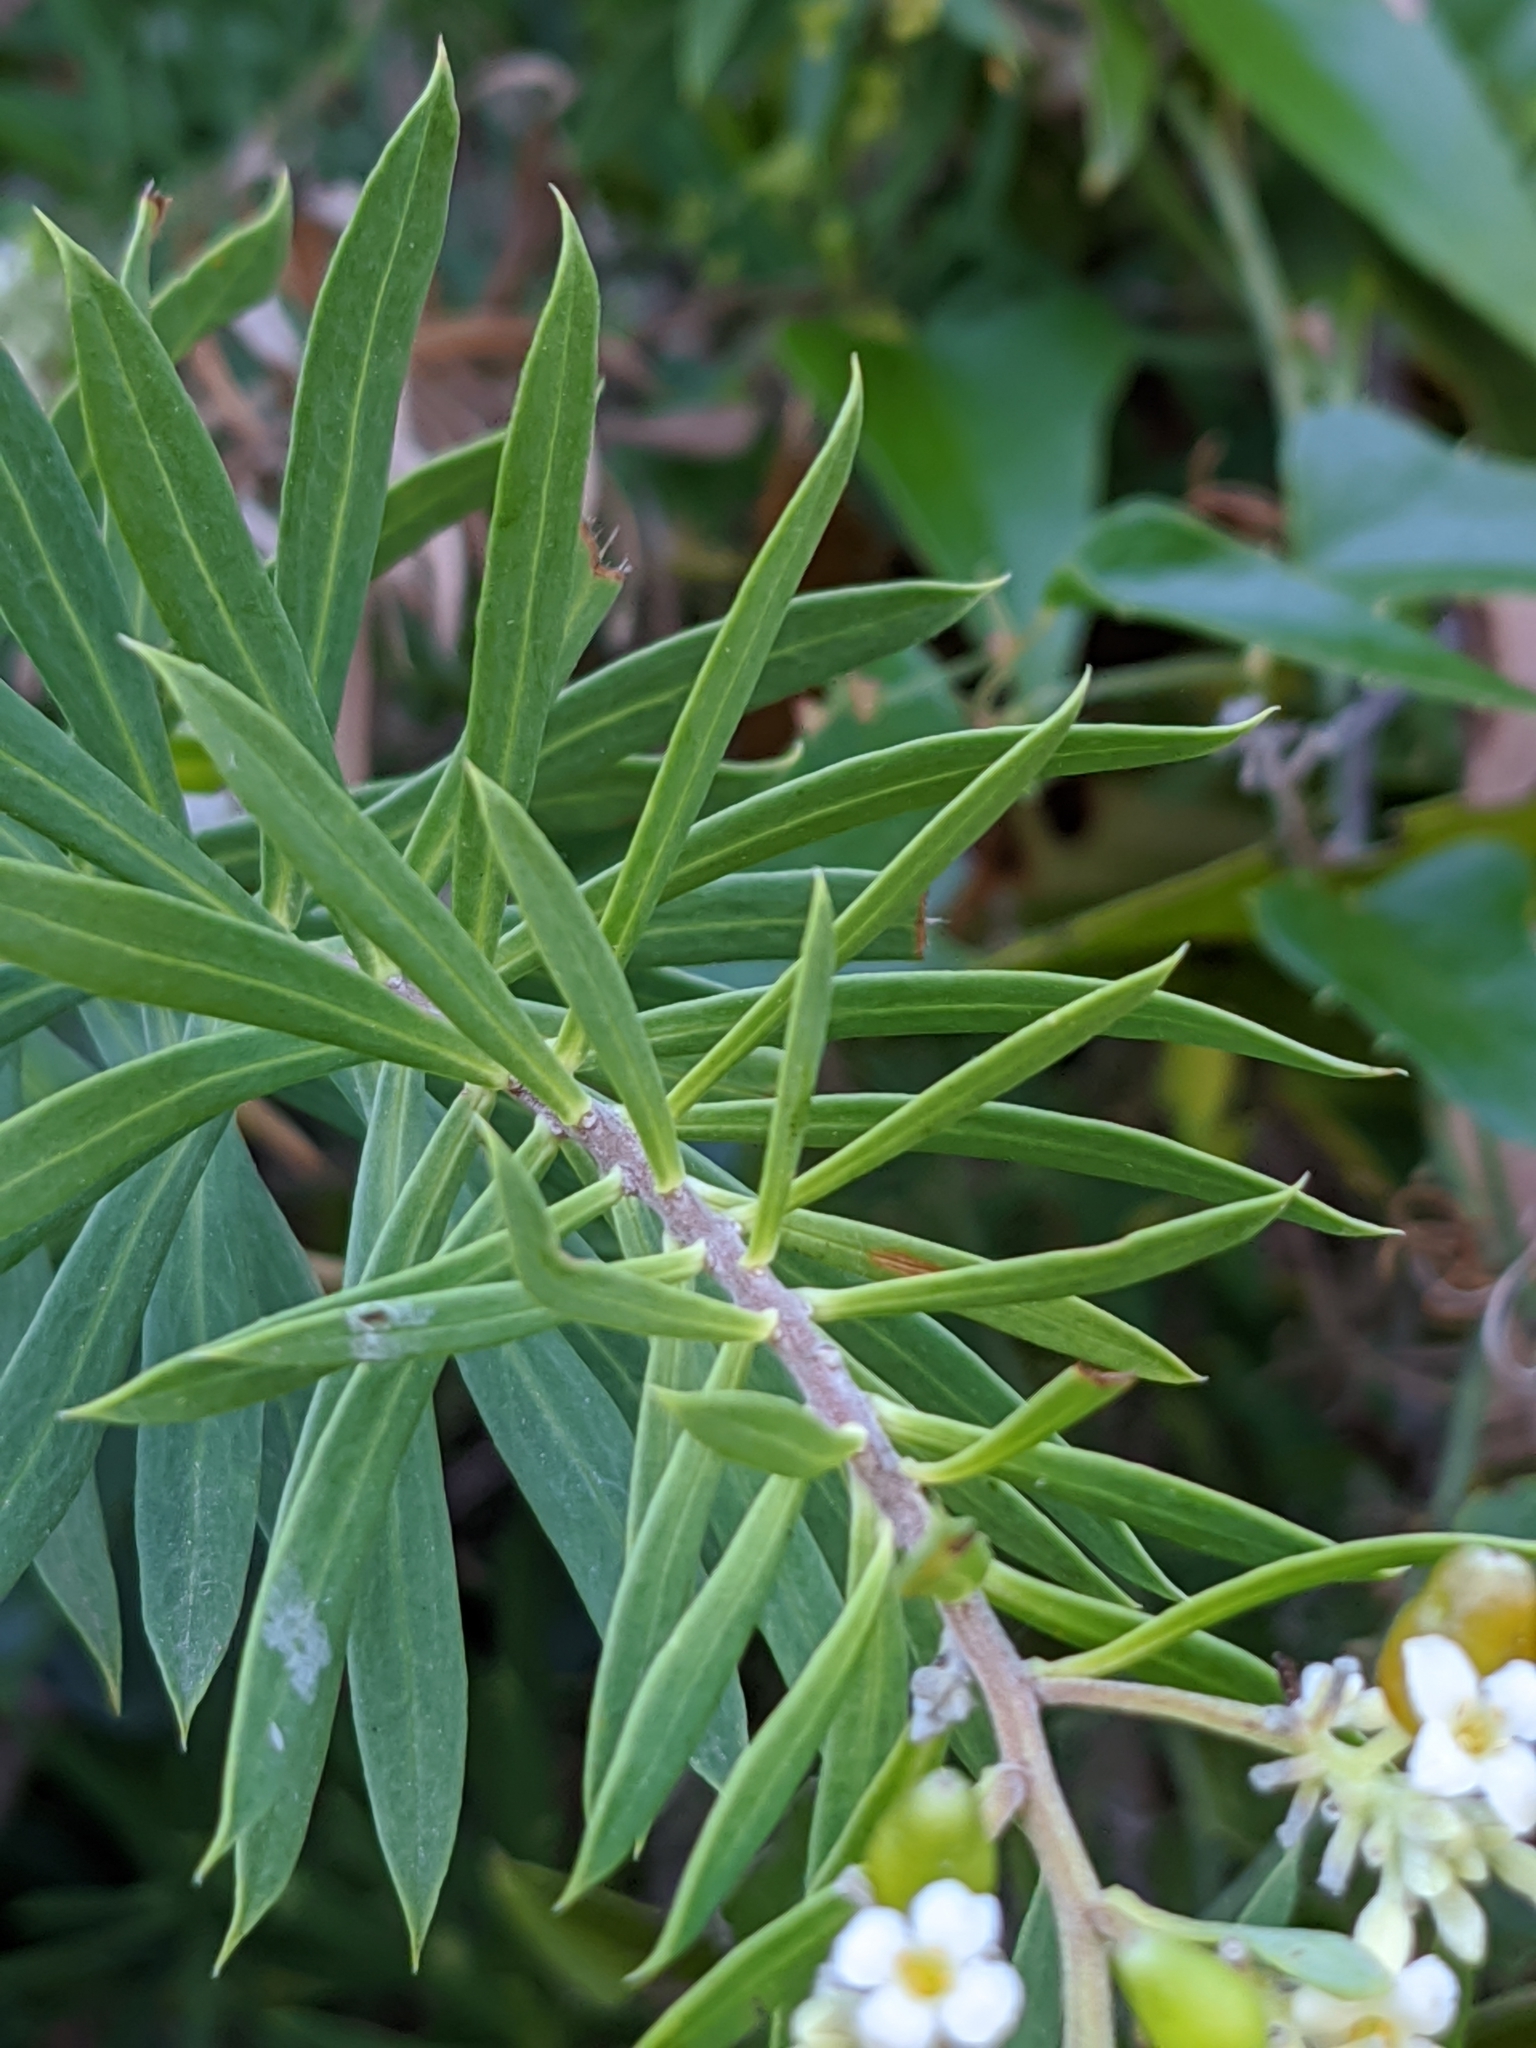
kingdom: Plantae
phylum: Tracheophyta
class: Magnoliopsida
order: Malvales
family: Thymelaeaceae
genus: Daphne
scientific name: Daphne gnidium
